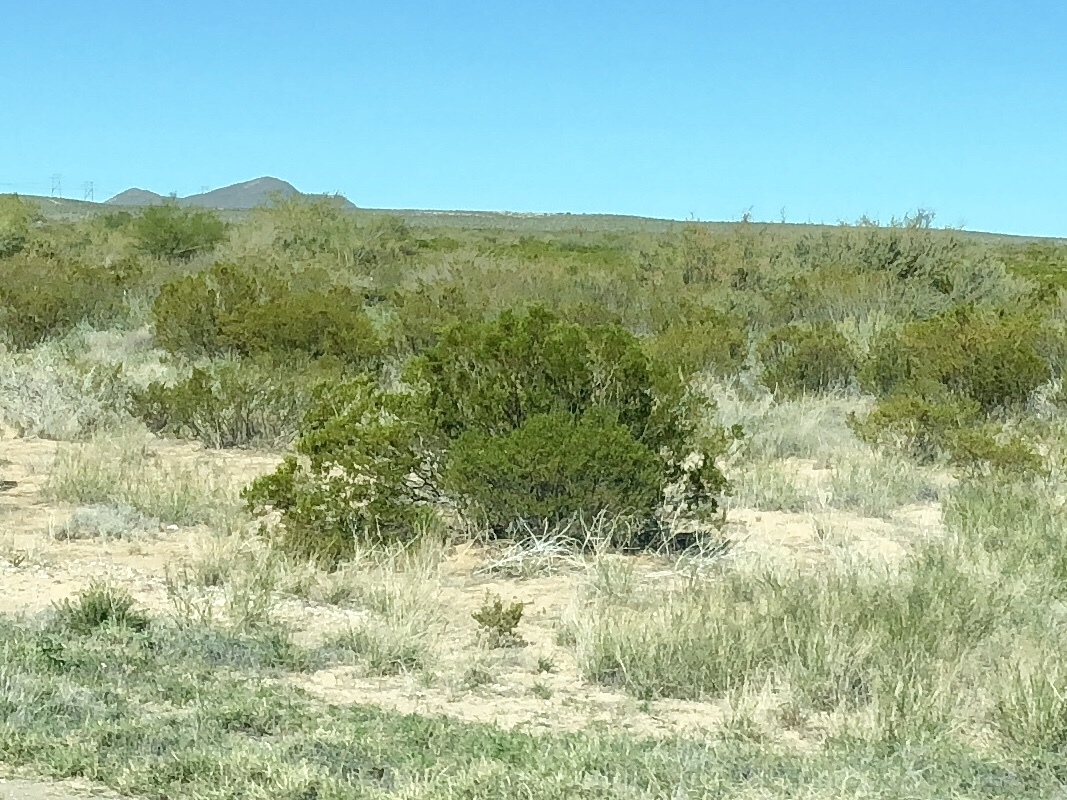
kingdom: Plantae
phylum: Tracheophyta
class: Magnoliopsida
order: Zygophyllales
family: Zygophyllaceae
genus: Larrea
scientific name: Larrea tridentata
